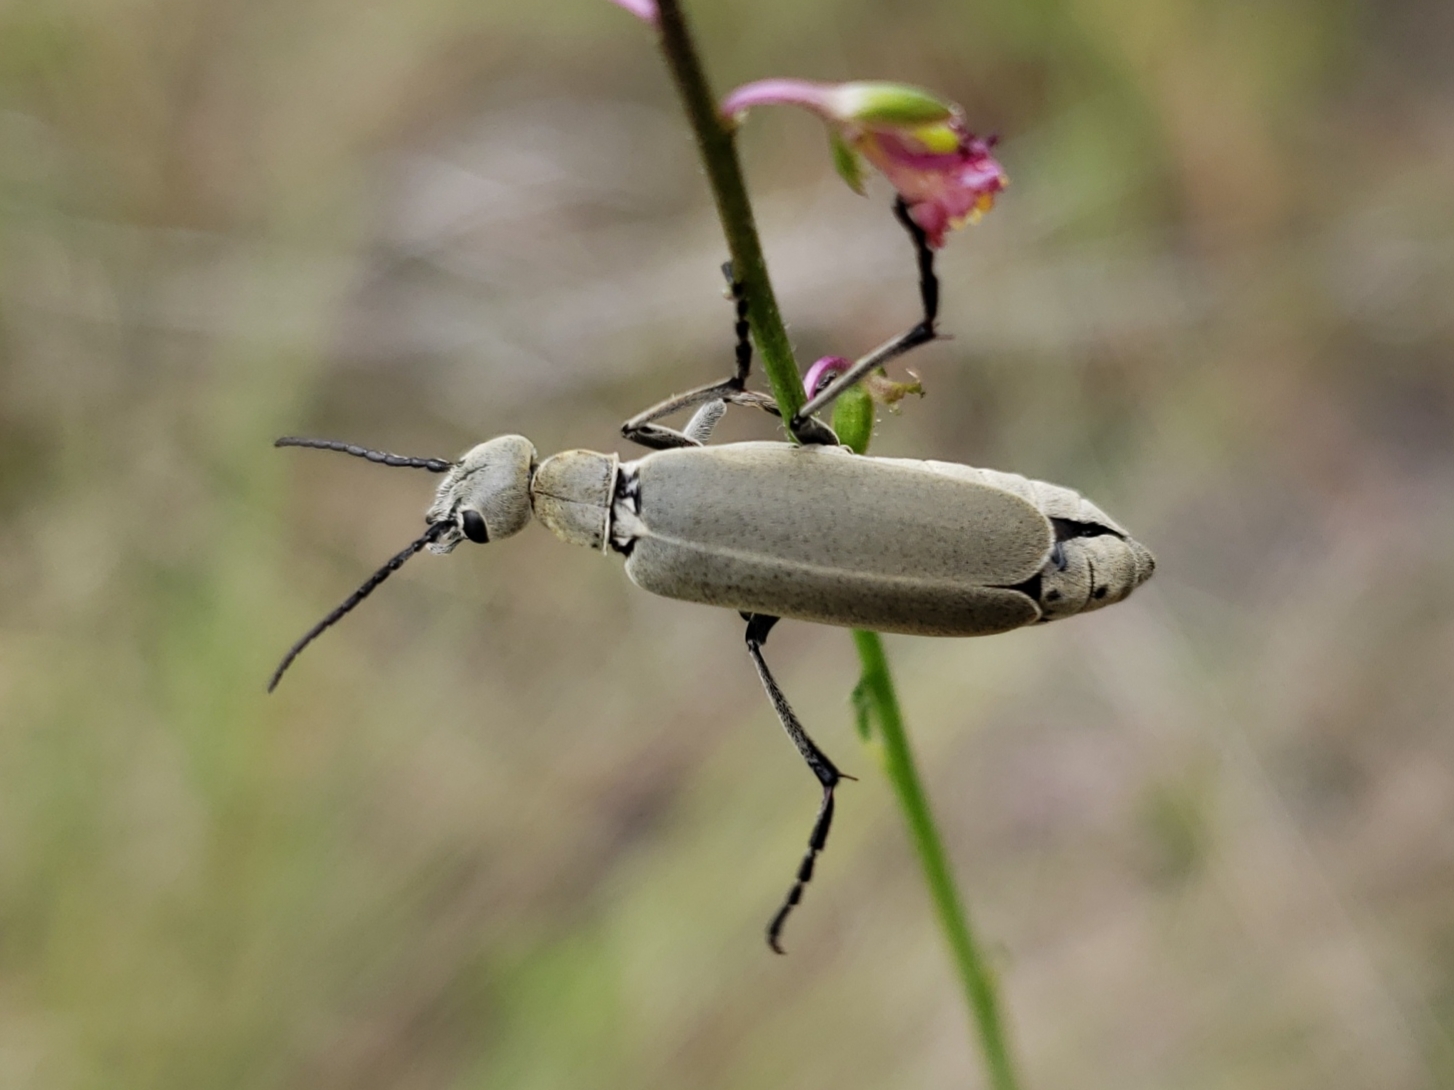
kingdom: Animalia
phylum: Arthropoda
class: Insecta
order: Coleoptera
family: Meloidae
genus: Epicauta
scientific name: Epicauta floridensis
